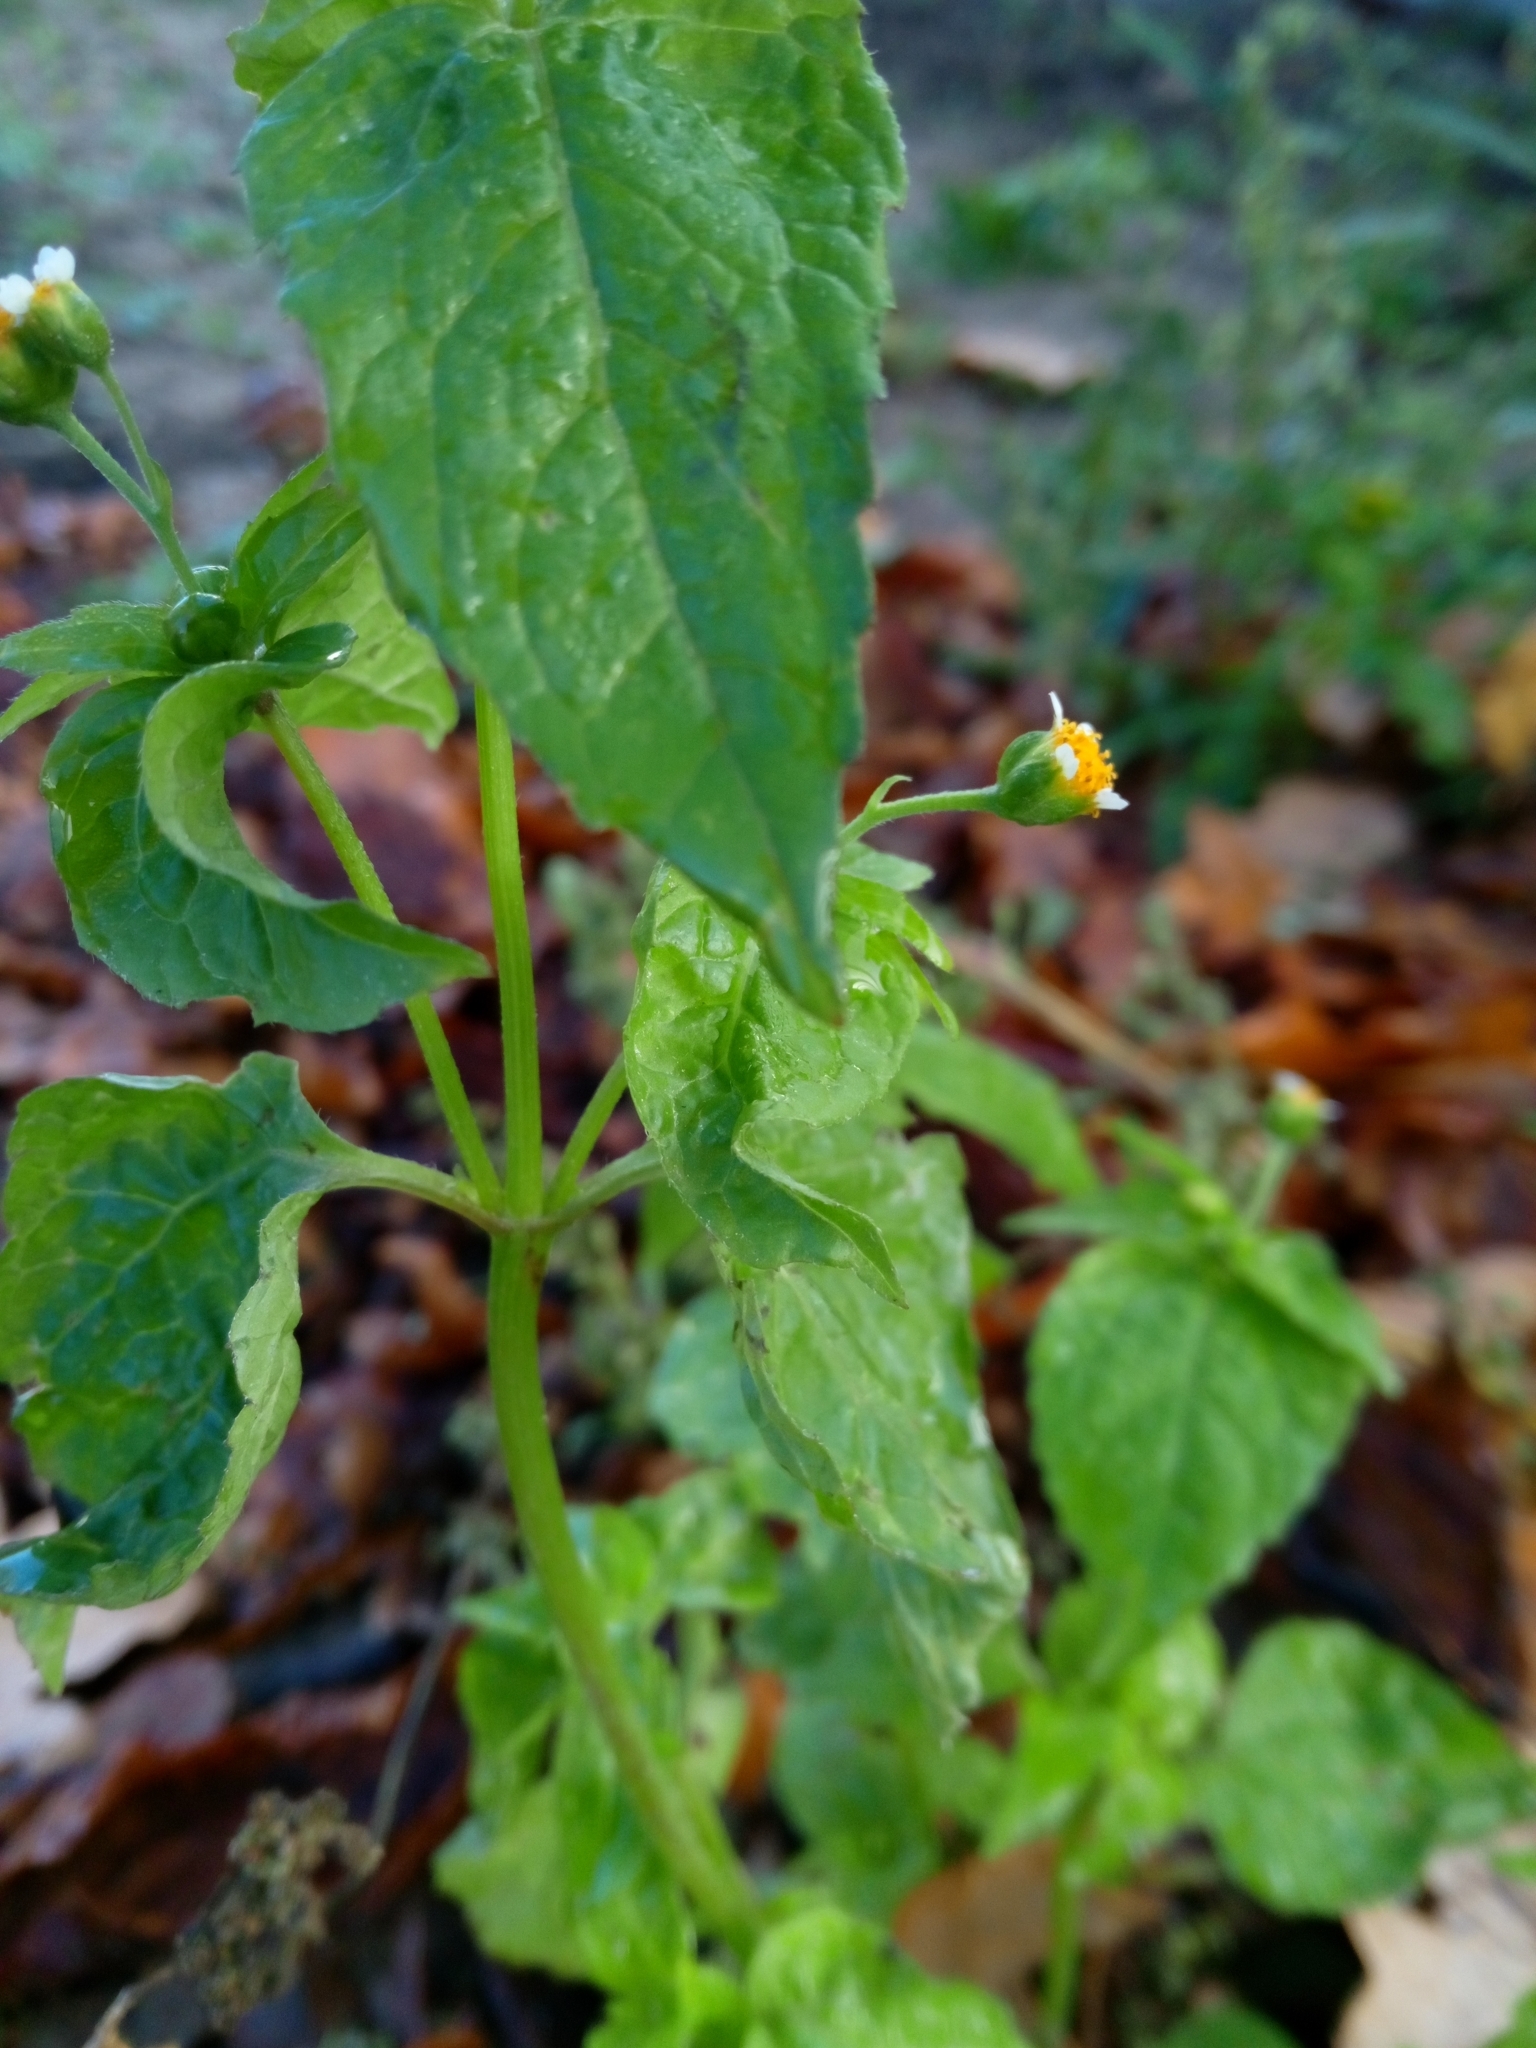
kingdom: Plantae
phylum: Tracheophyta
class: Magnoliopsida
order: Asterales
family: Asteraceae
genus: Galinsoga
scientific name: Galinsoga parviflora
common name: Gallant soldier
